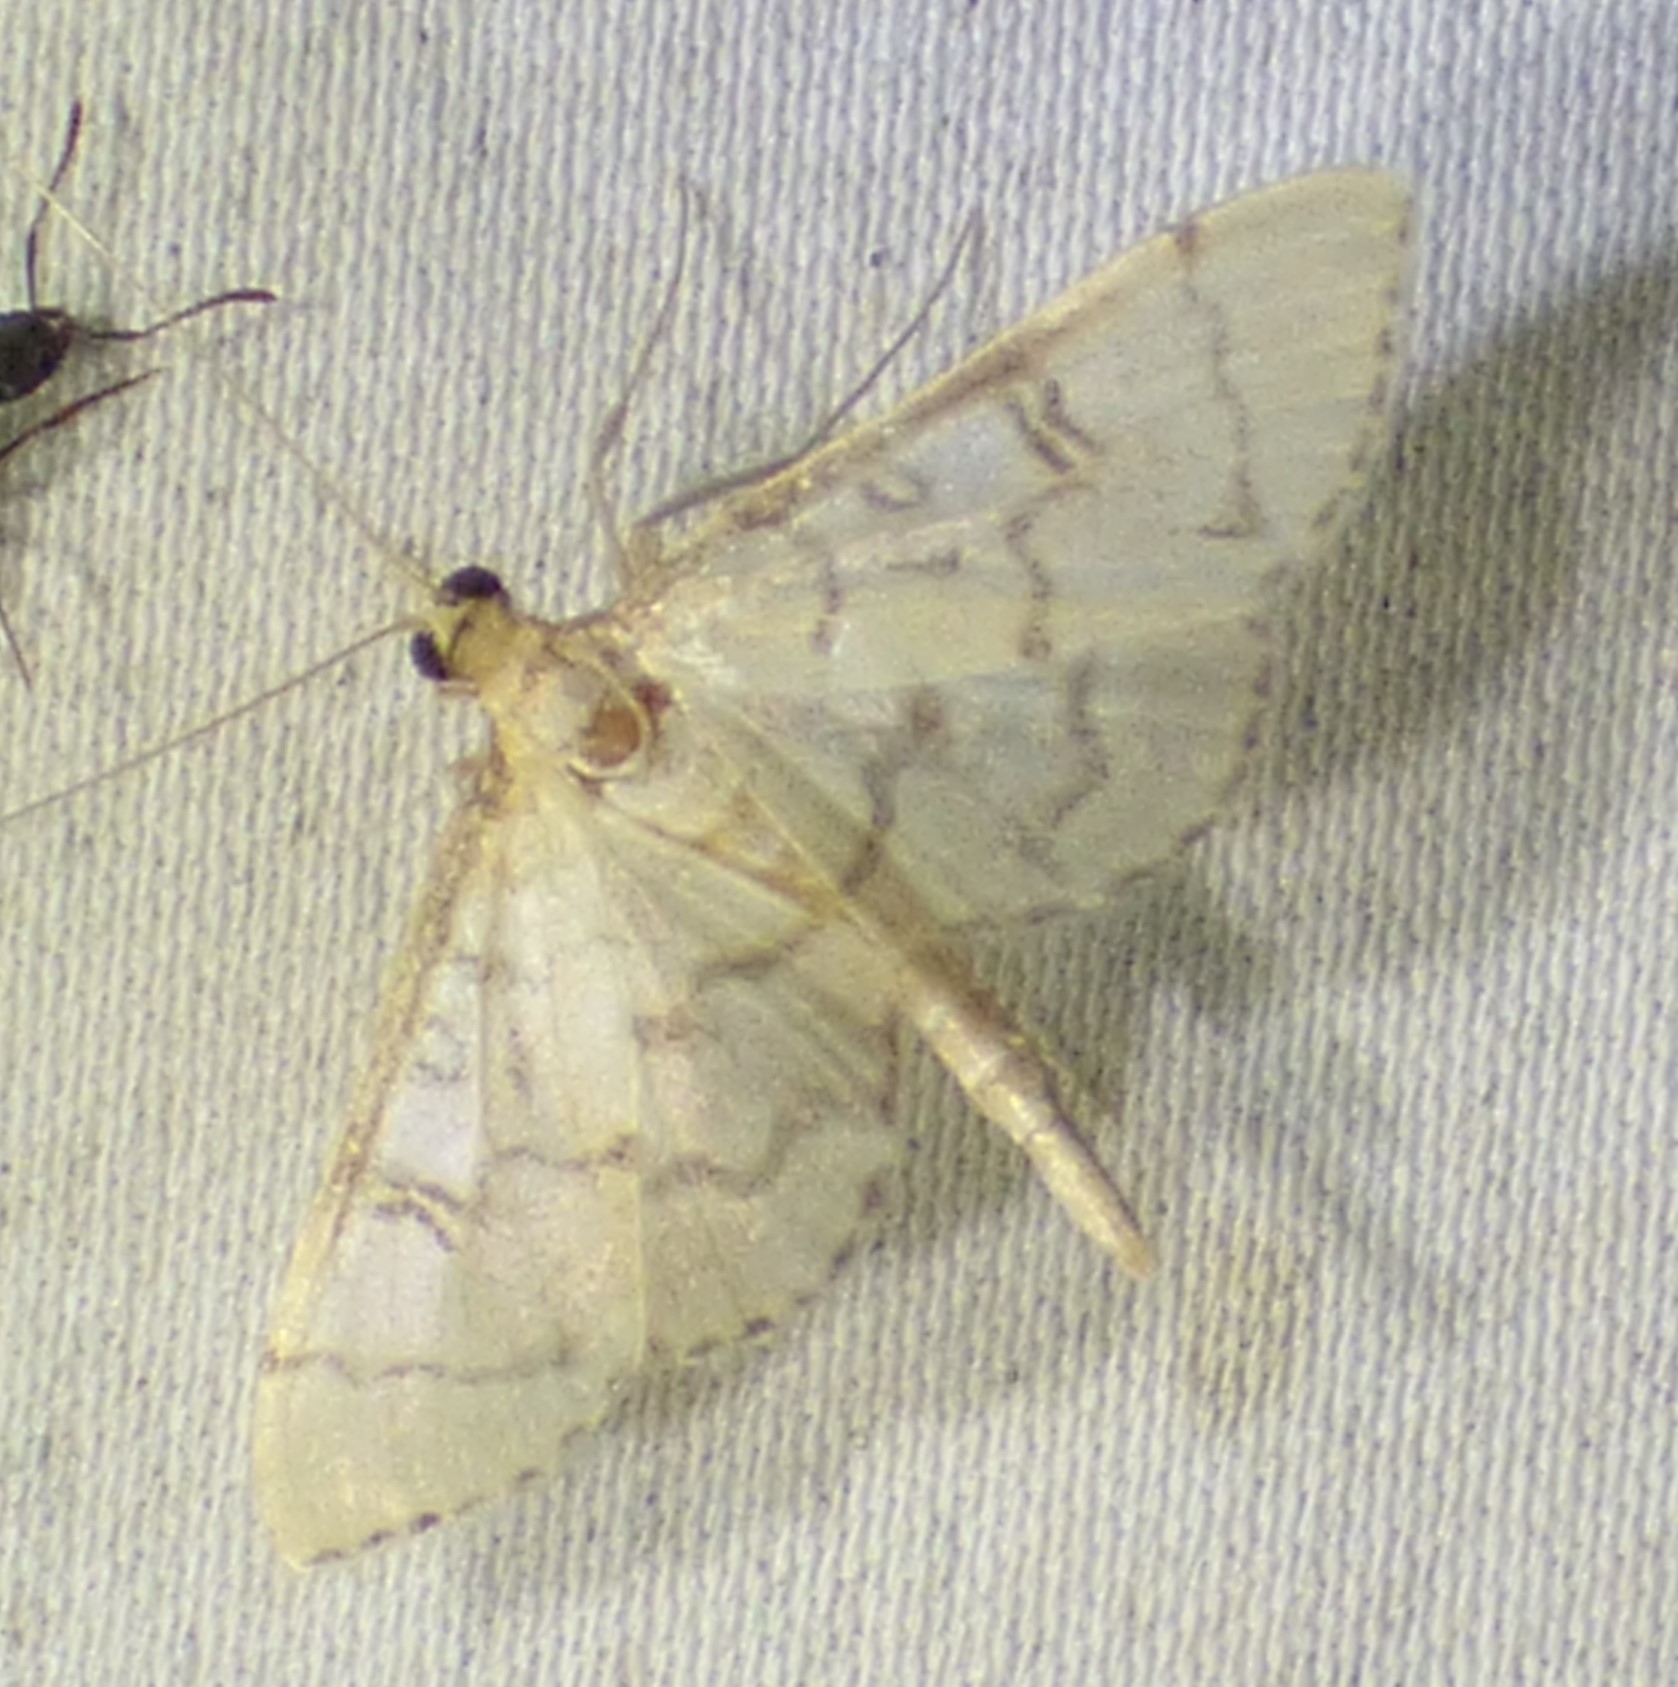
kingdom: Animalia
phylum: Arthropoda
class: Insecta
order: Lepidoptera
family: Crambidae
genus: Lamprosema
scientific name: Lamprosema Blepharomastix ranalis
